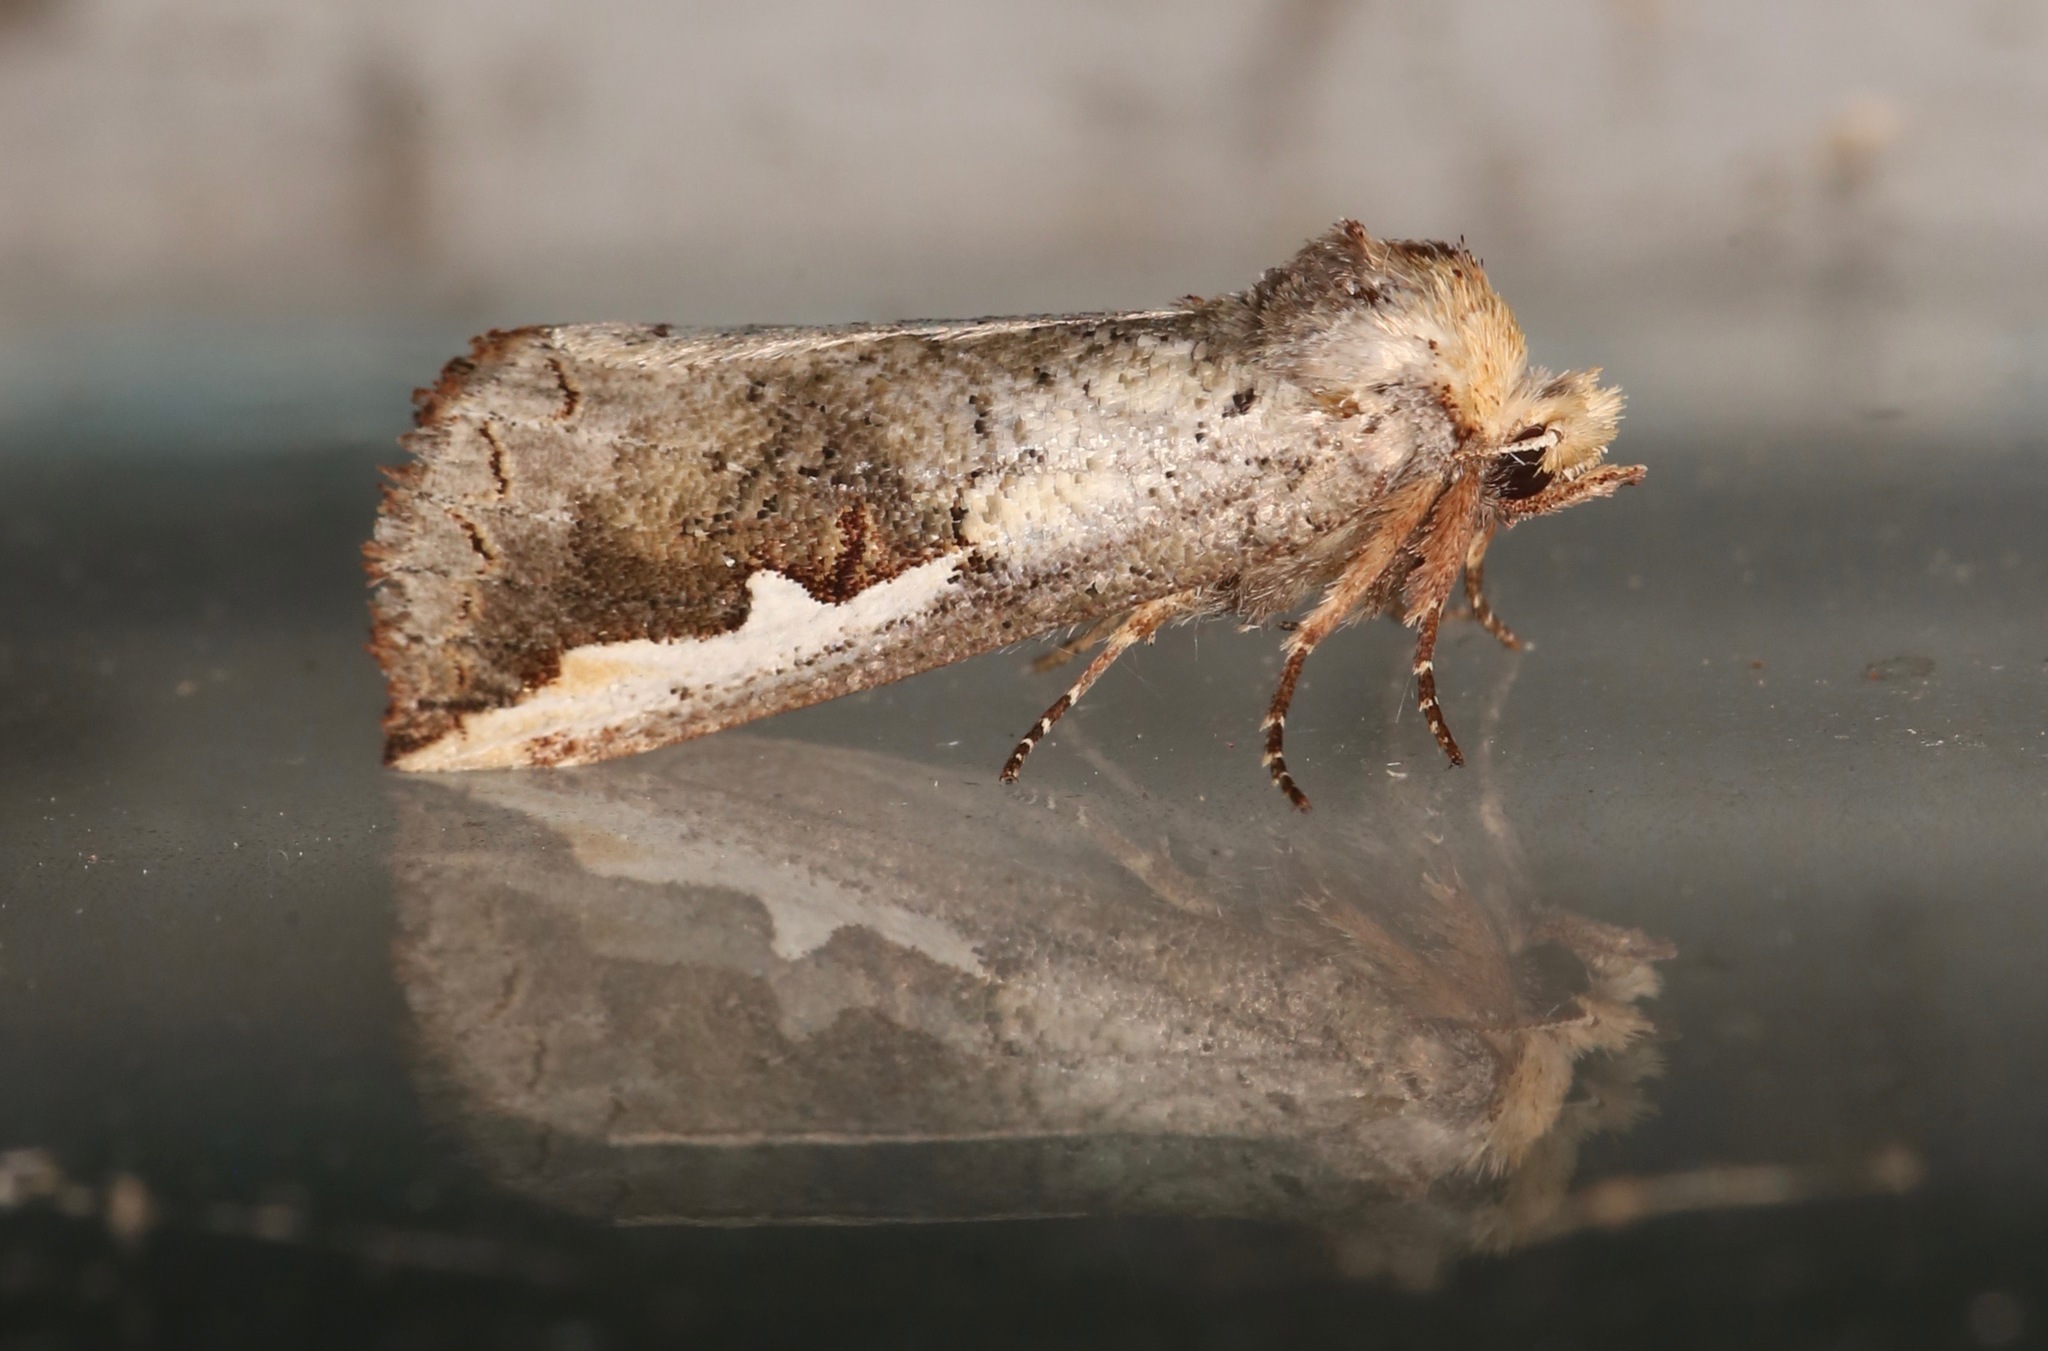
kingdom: Animalia
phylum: Arthropoda
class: Insecta
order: Lepidoptera
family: Notodontidae
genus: Symmerista
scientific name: Symmerista albifrons
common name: White-headed prominent
